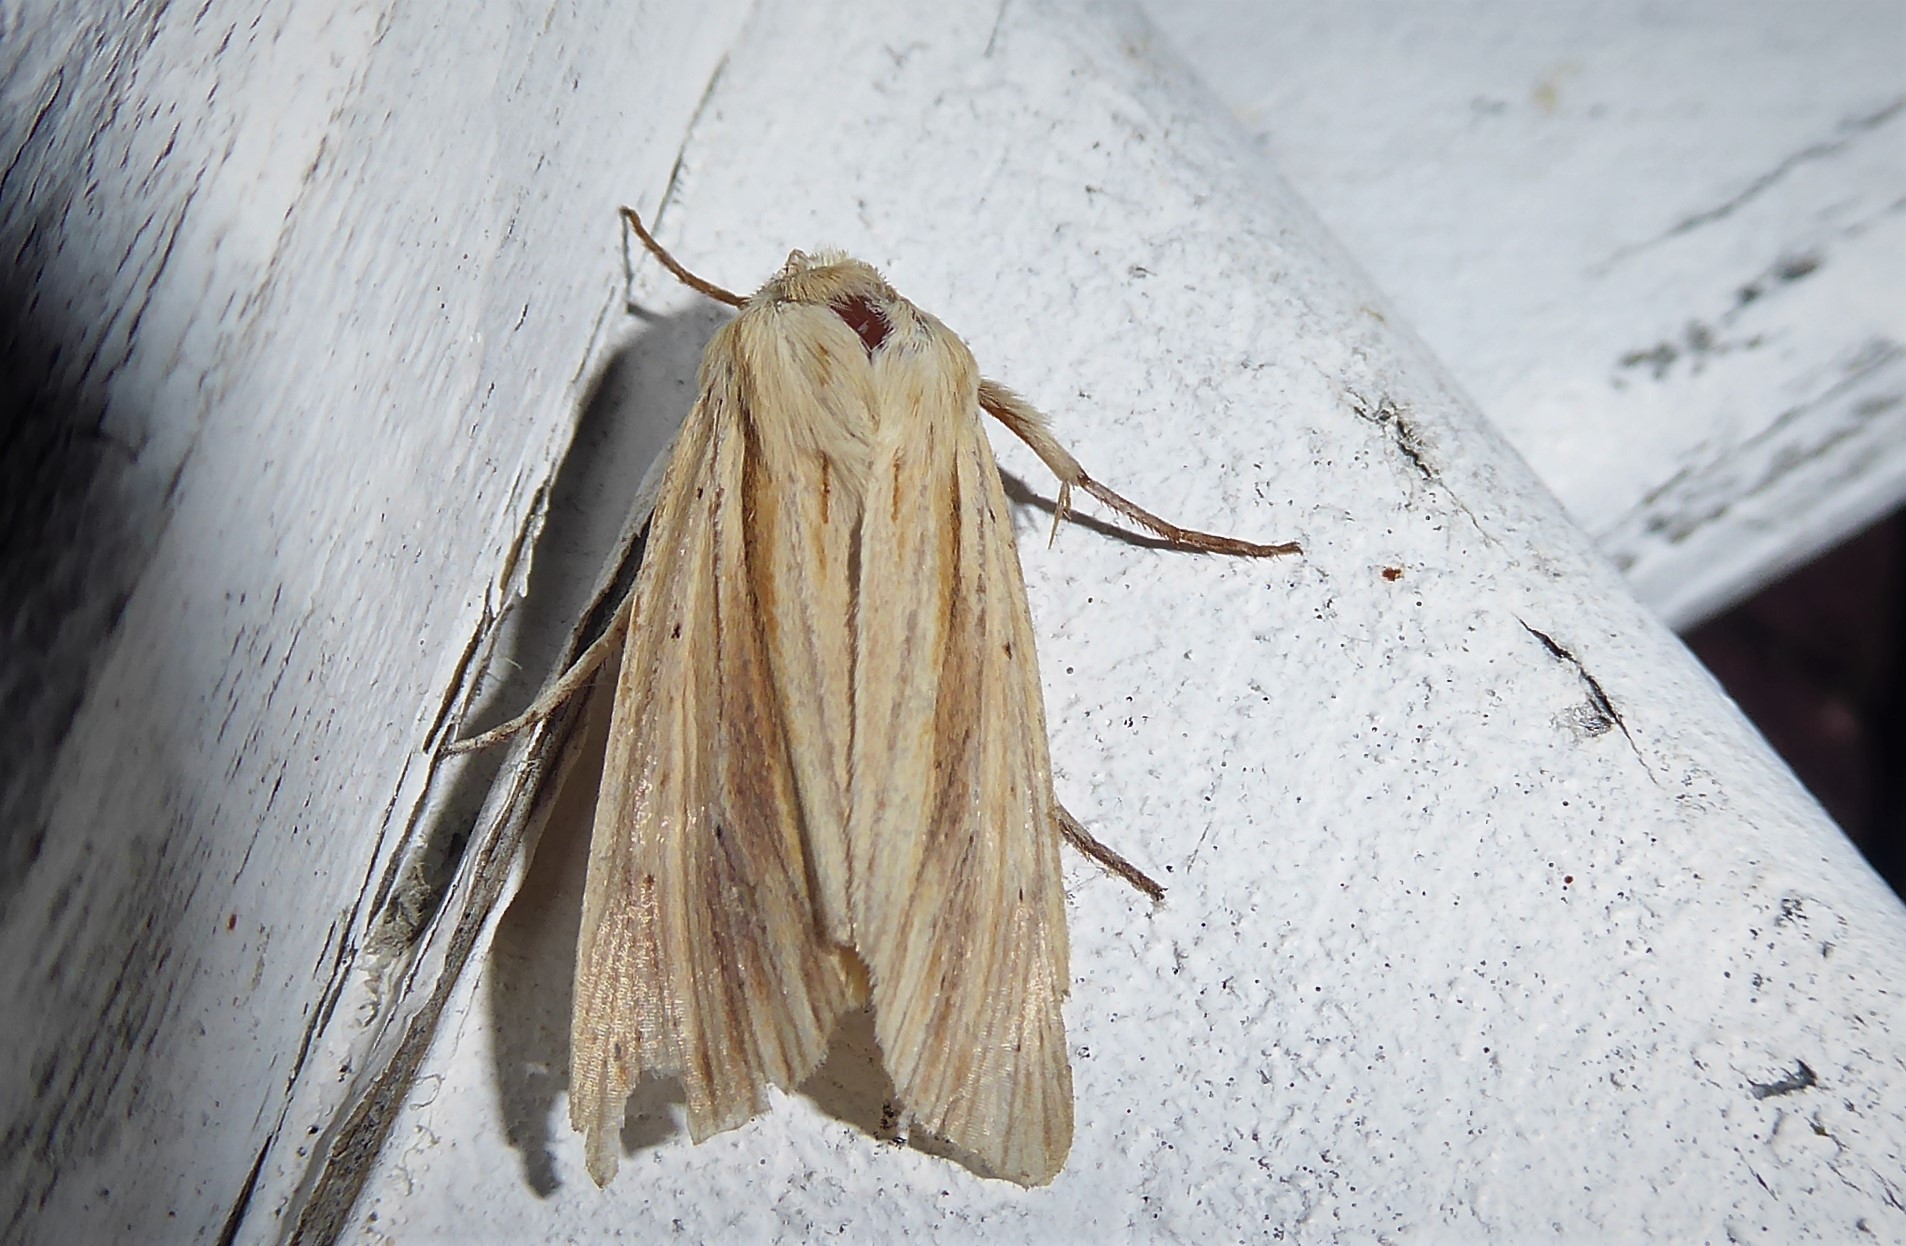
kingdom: Animalia
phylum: Arthropoda
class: Insecta
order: Lepidoptera
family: Noctuidae
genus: Ichneutica
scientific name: Ichneutica semivittata
